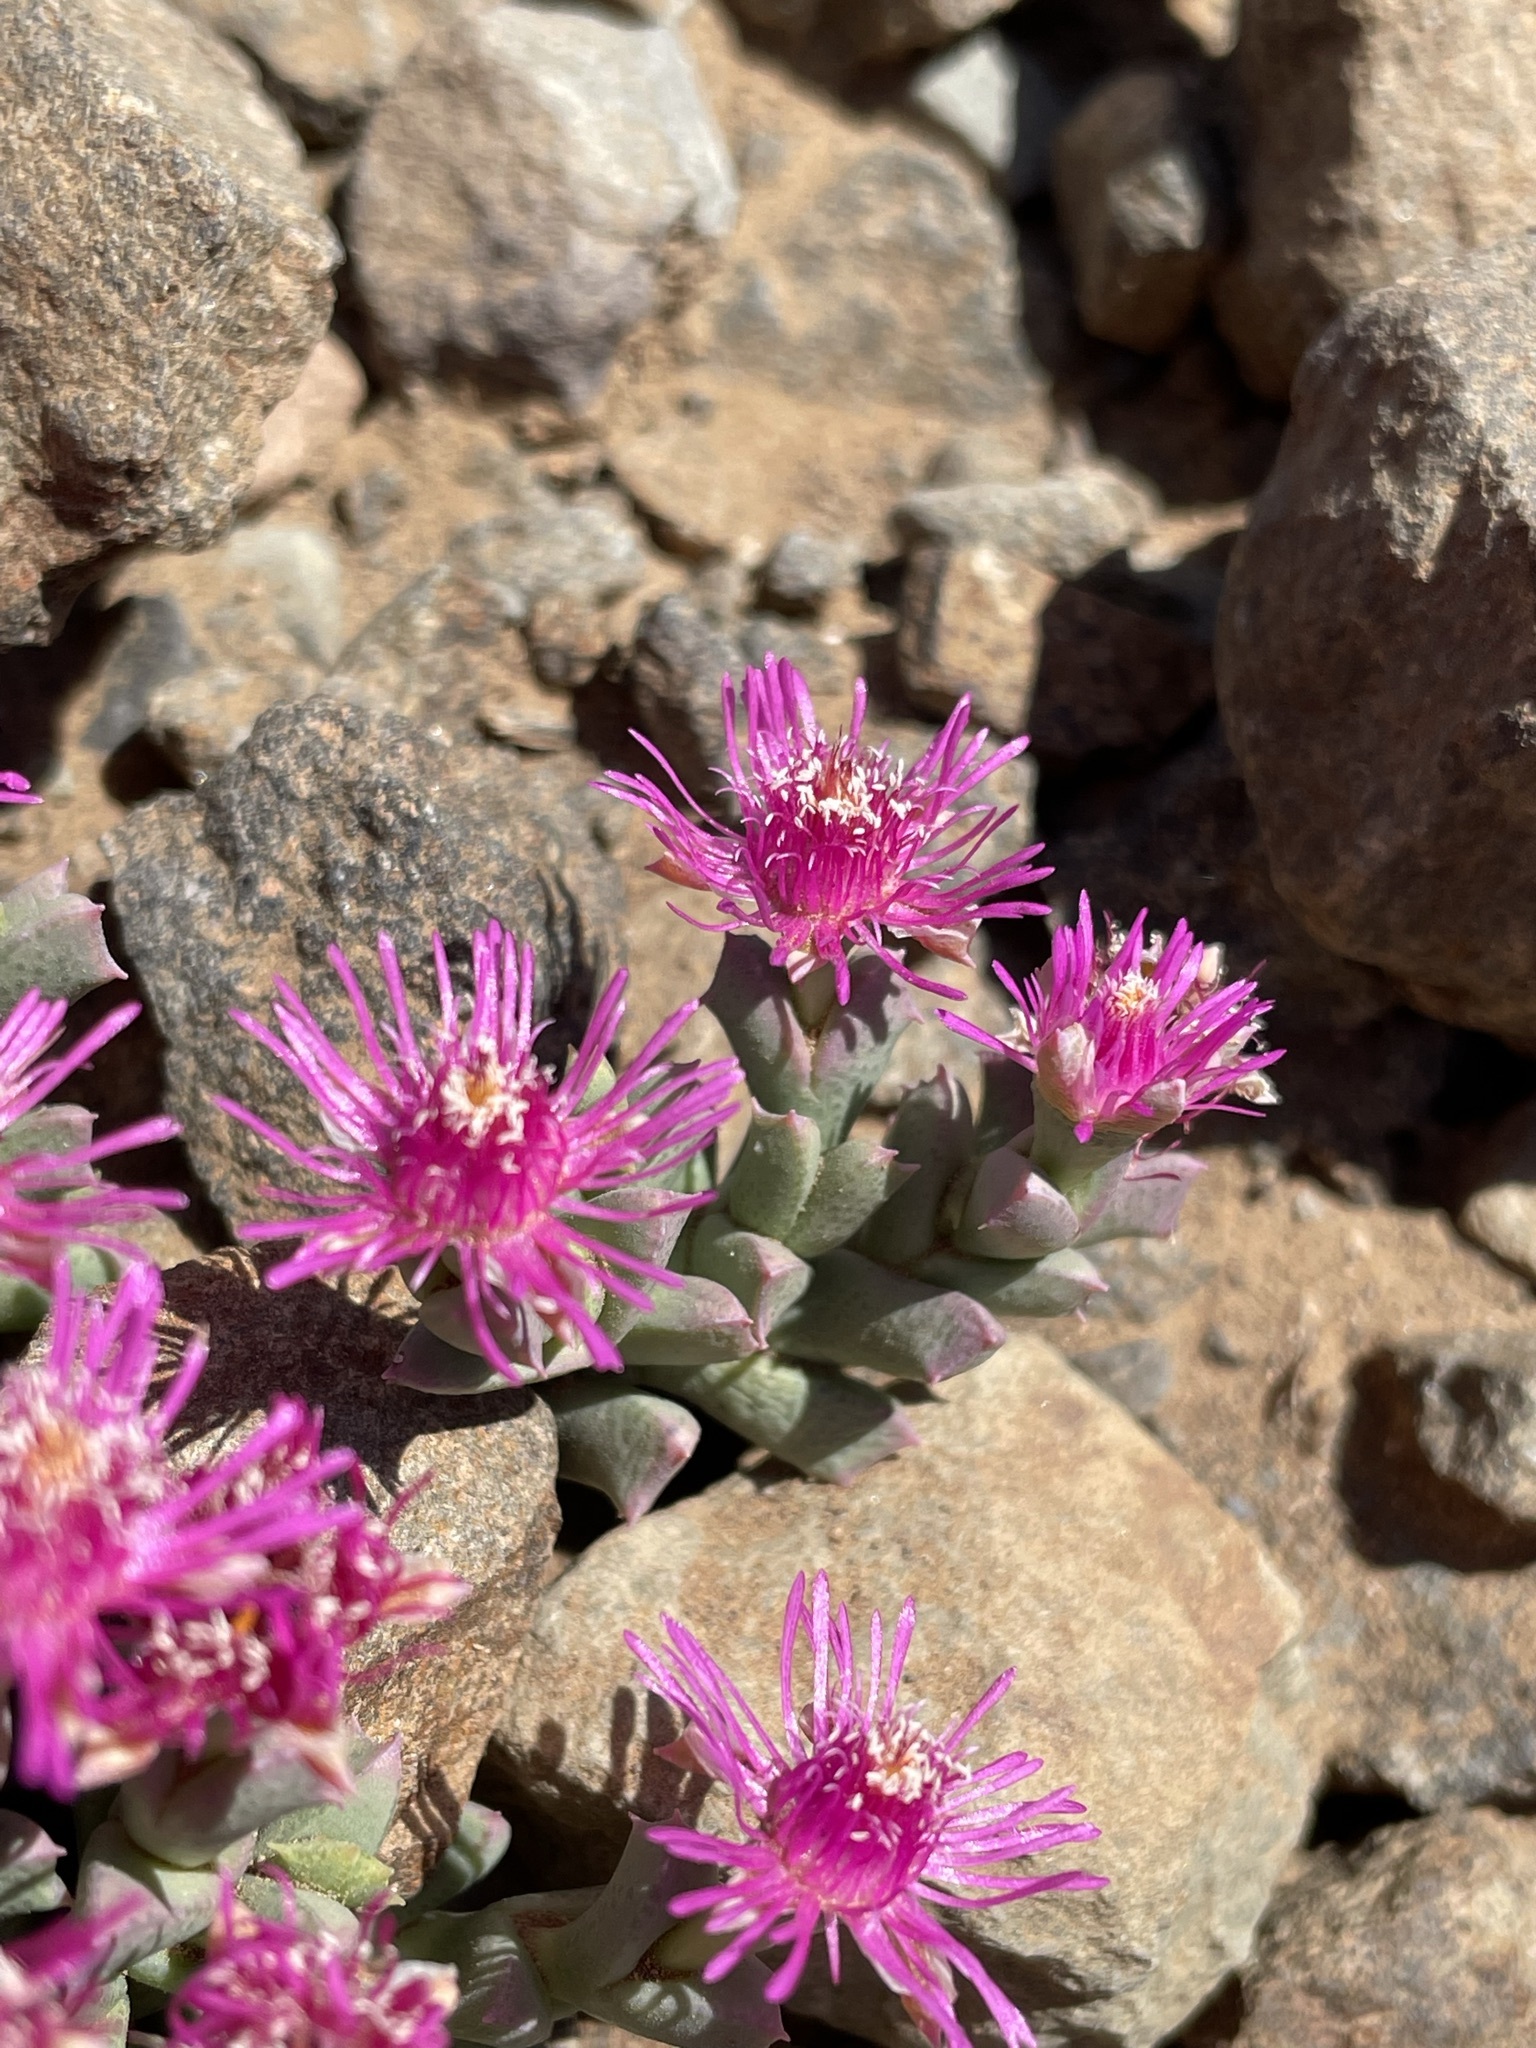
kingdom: Plantae
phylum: Tracheophyta
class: Magnoliopsida
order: Caryophyllales
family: Aizoaceae
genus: Ruschia
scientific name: Ruschia laxipetala
